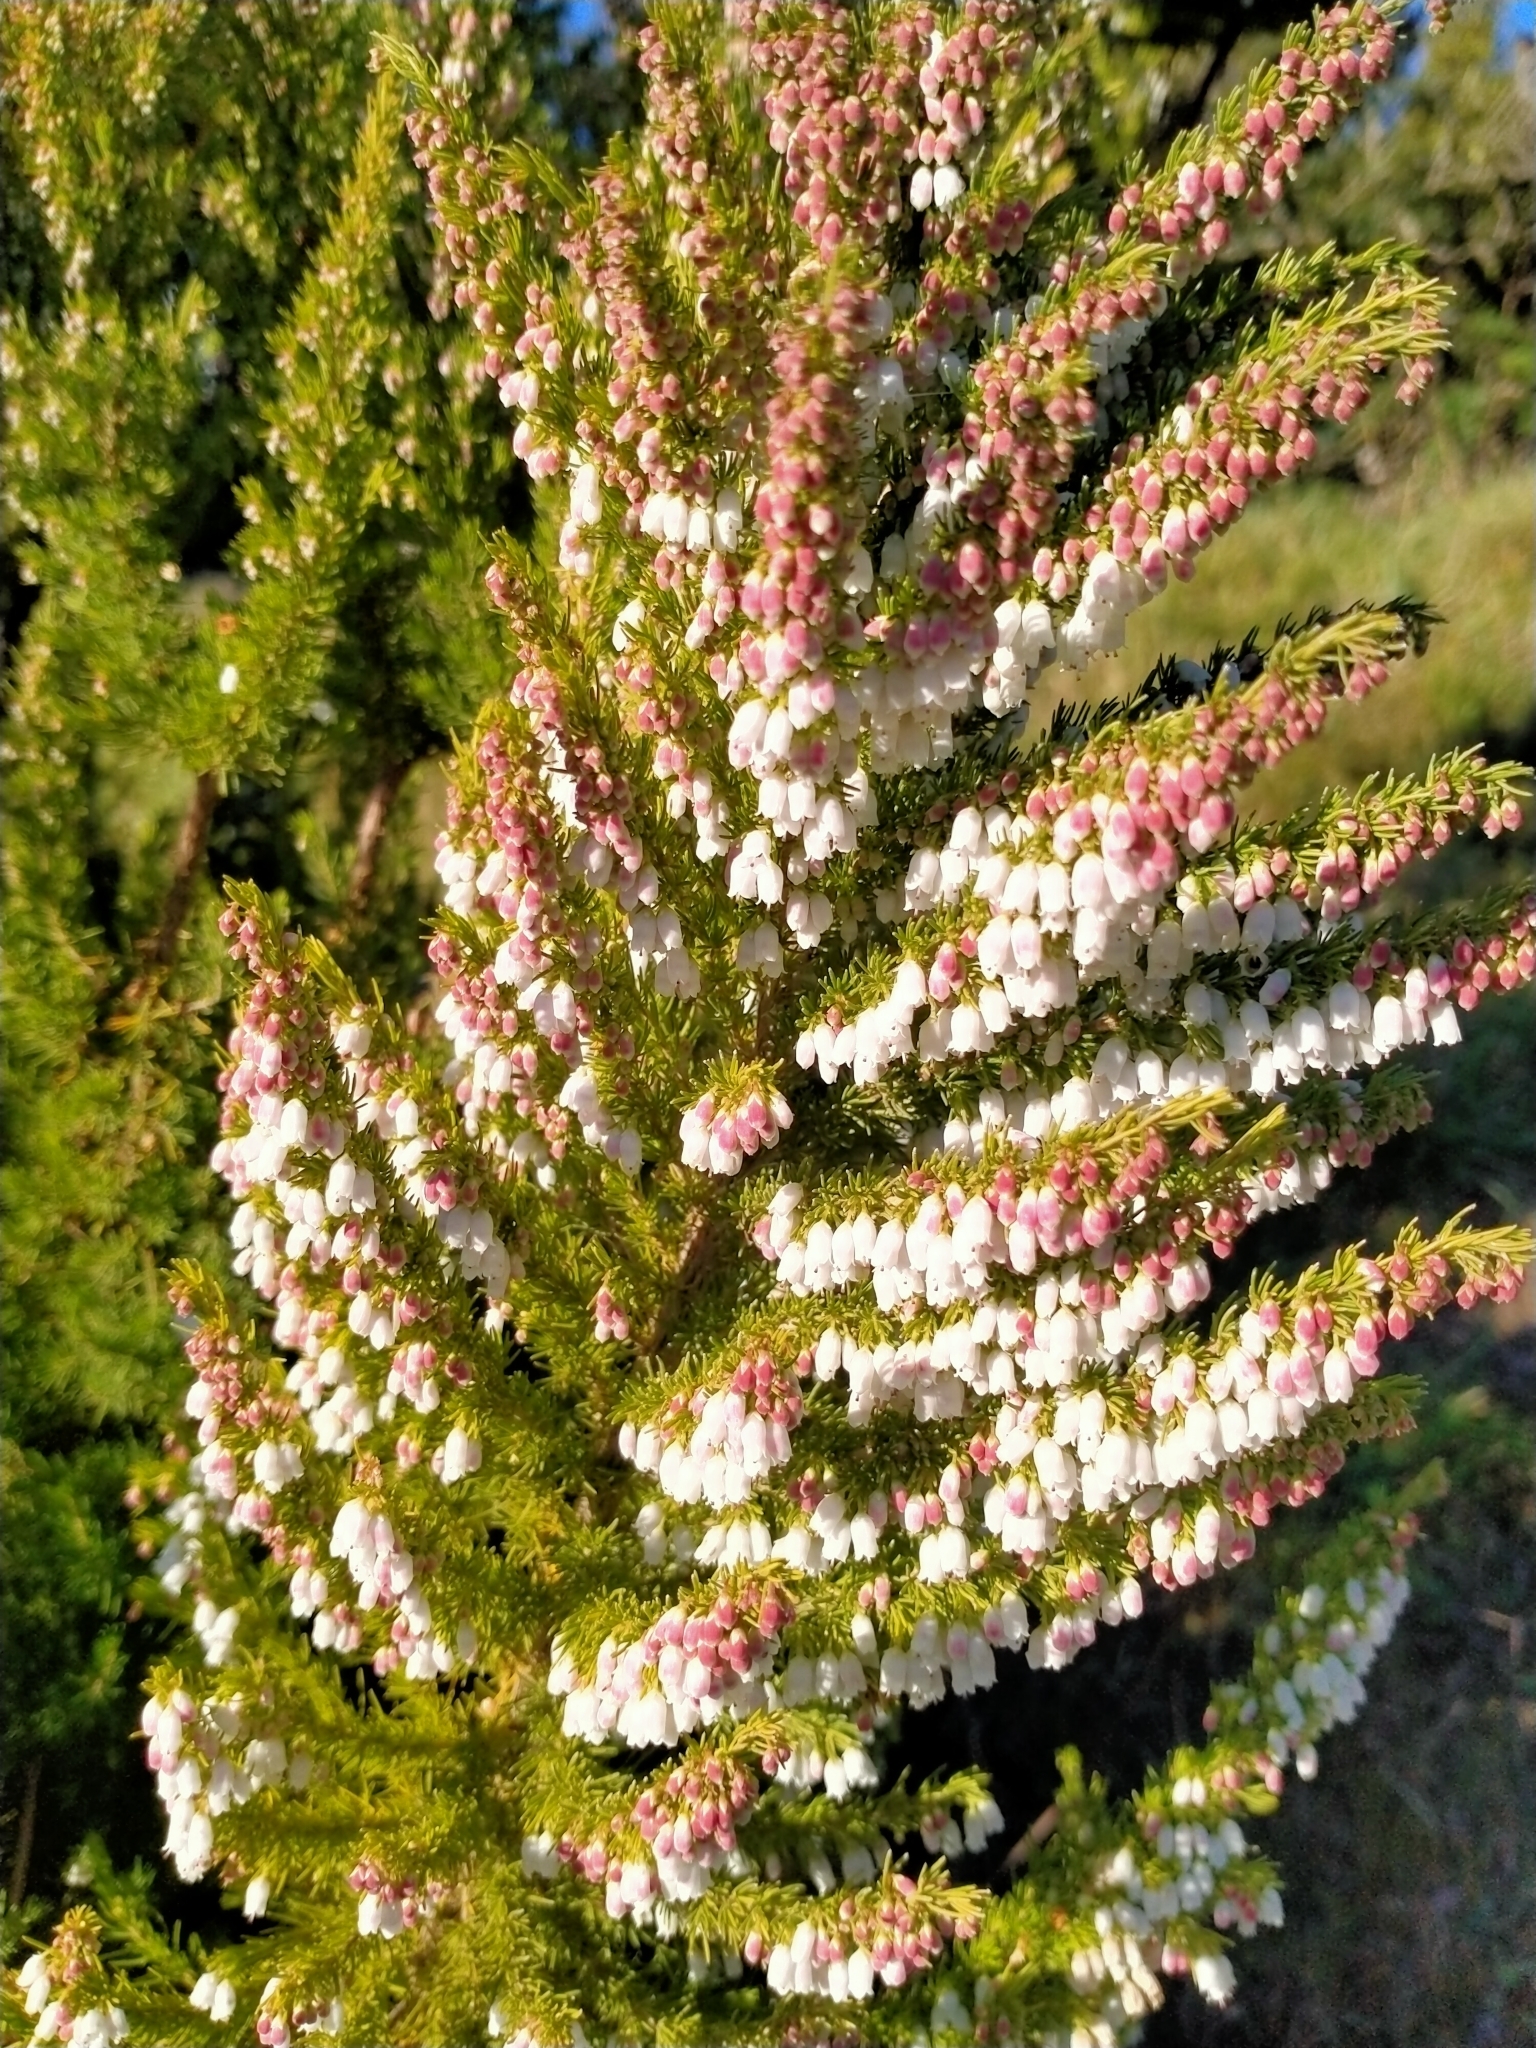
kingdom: Plantae
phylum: Tracheophyta
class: Magnoliopsida
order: Ericales
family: Ericaceae
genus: Erica
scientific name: Erica lusitanica
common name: Spanish heath
